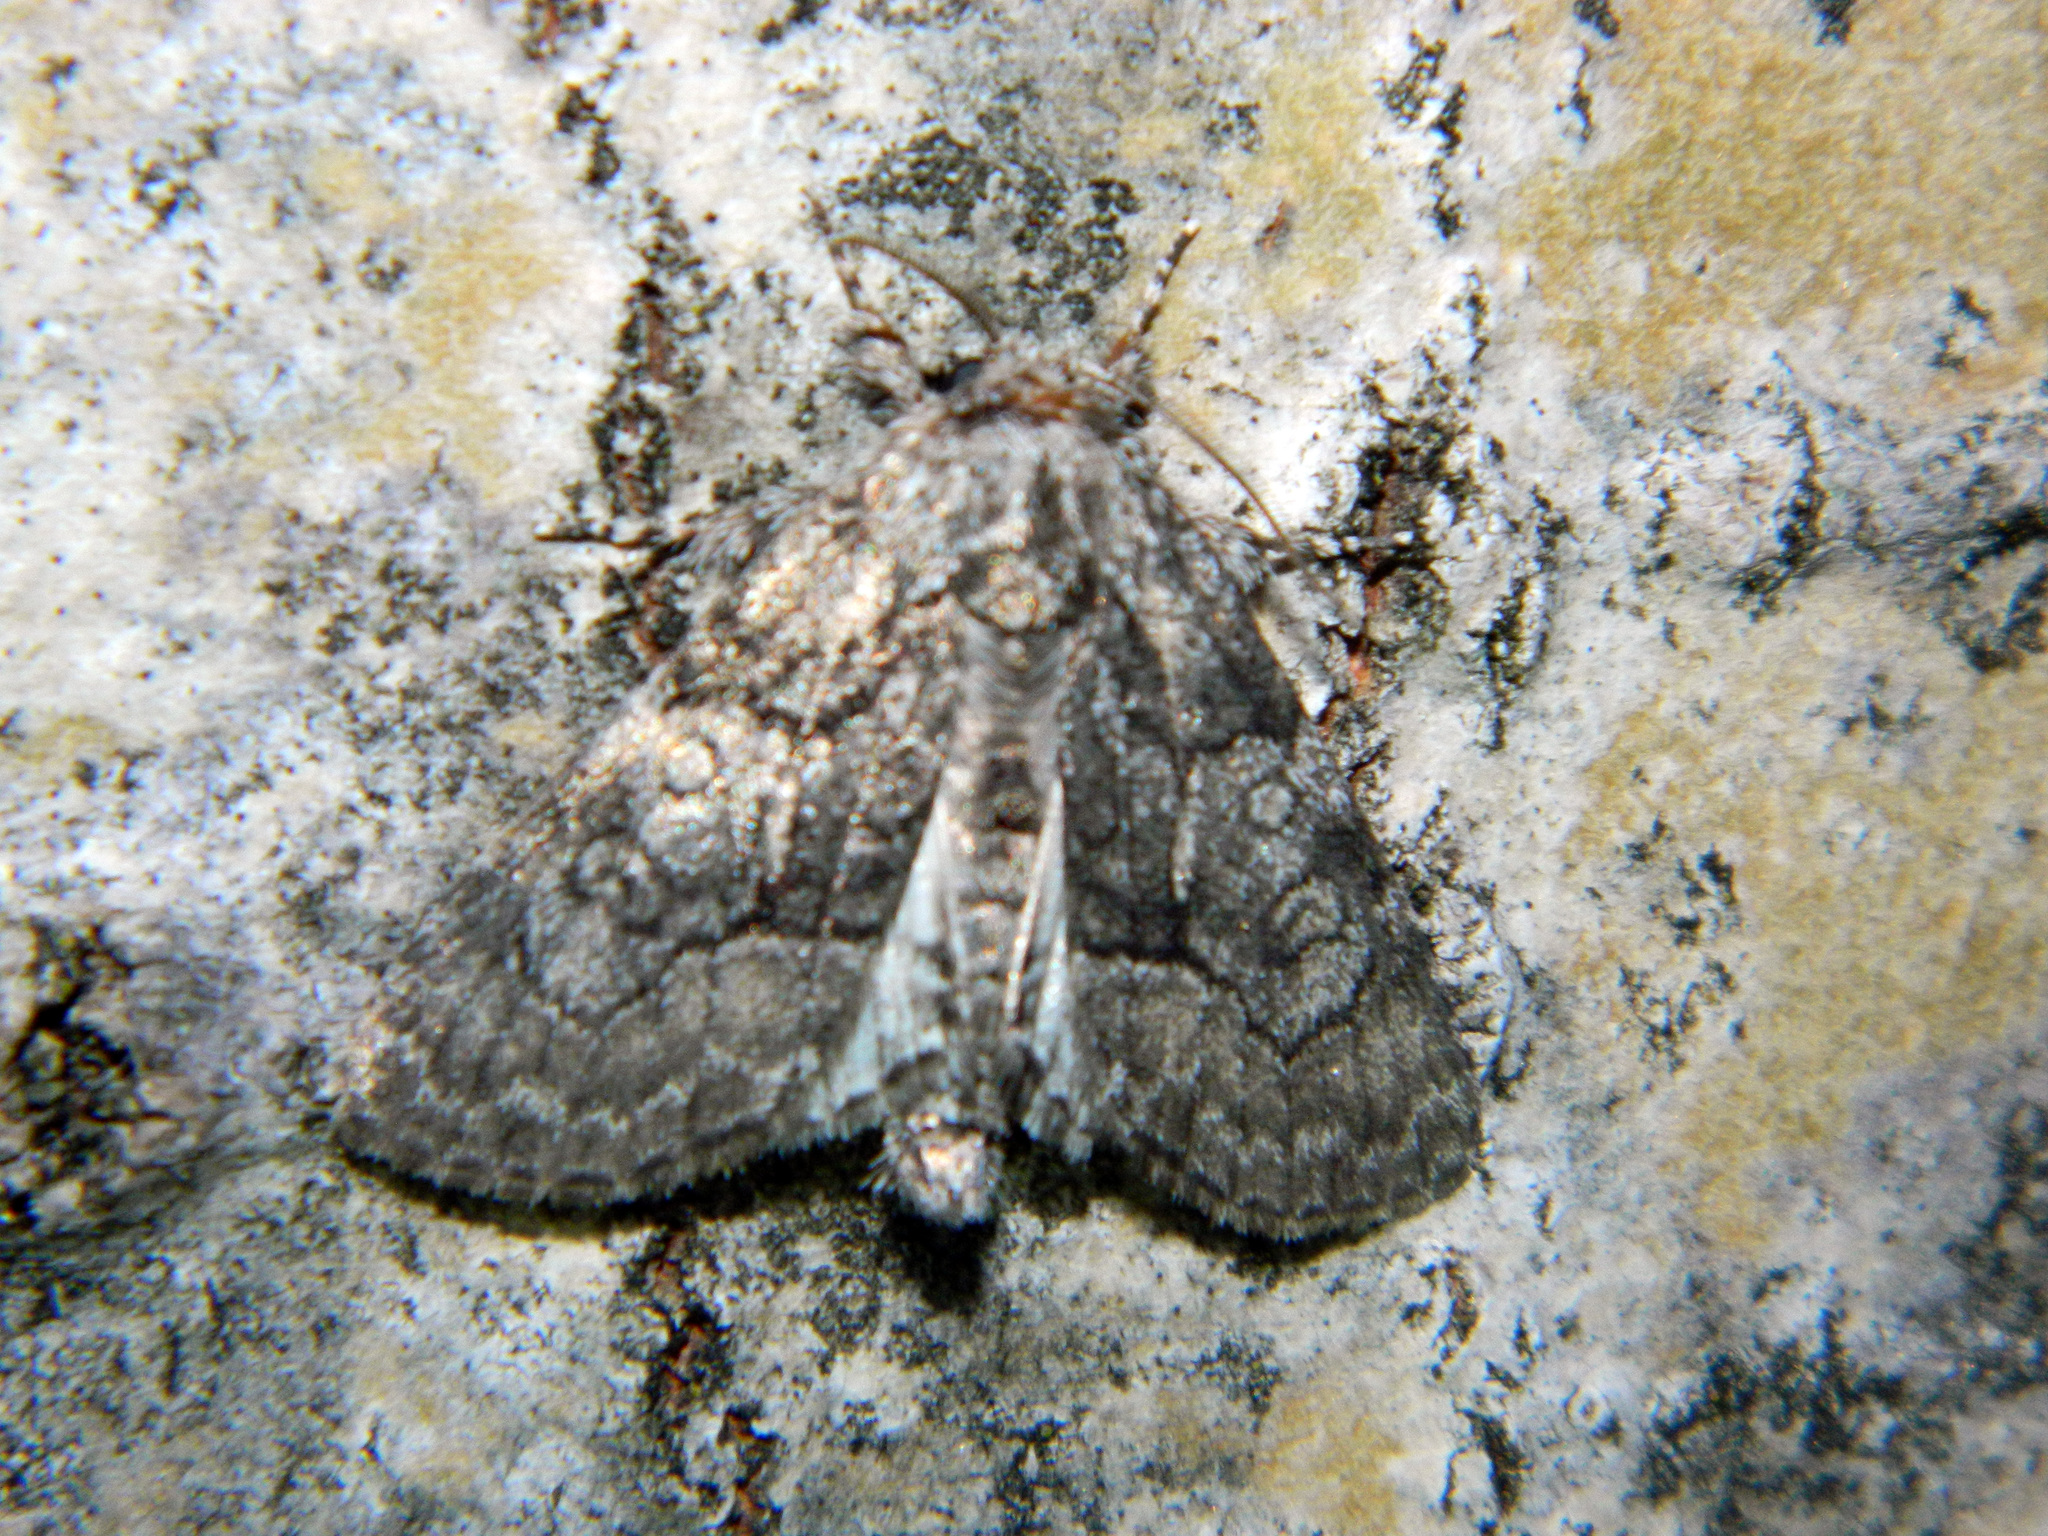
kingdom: Animalia
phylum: Arthropoda
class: Insecta
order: Lepidoptera
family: Noctuidae
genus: Raphia
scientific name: Raphia frater
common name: Brother
